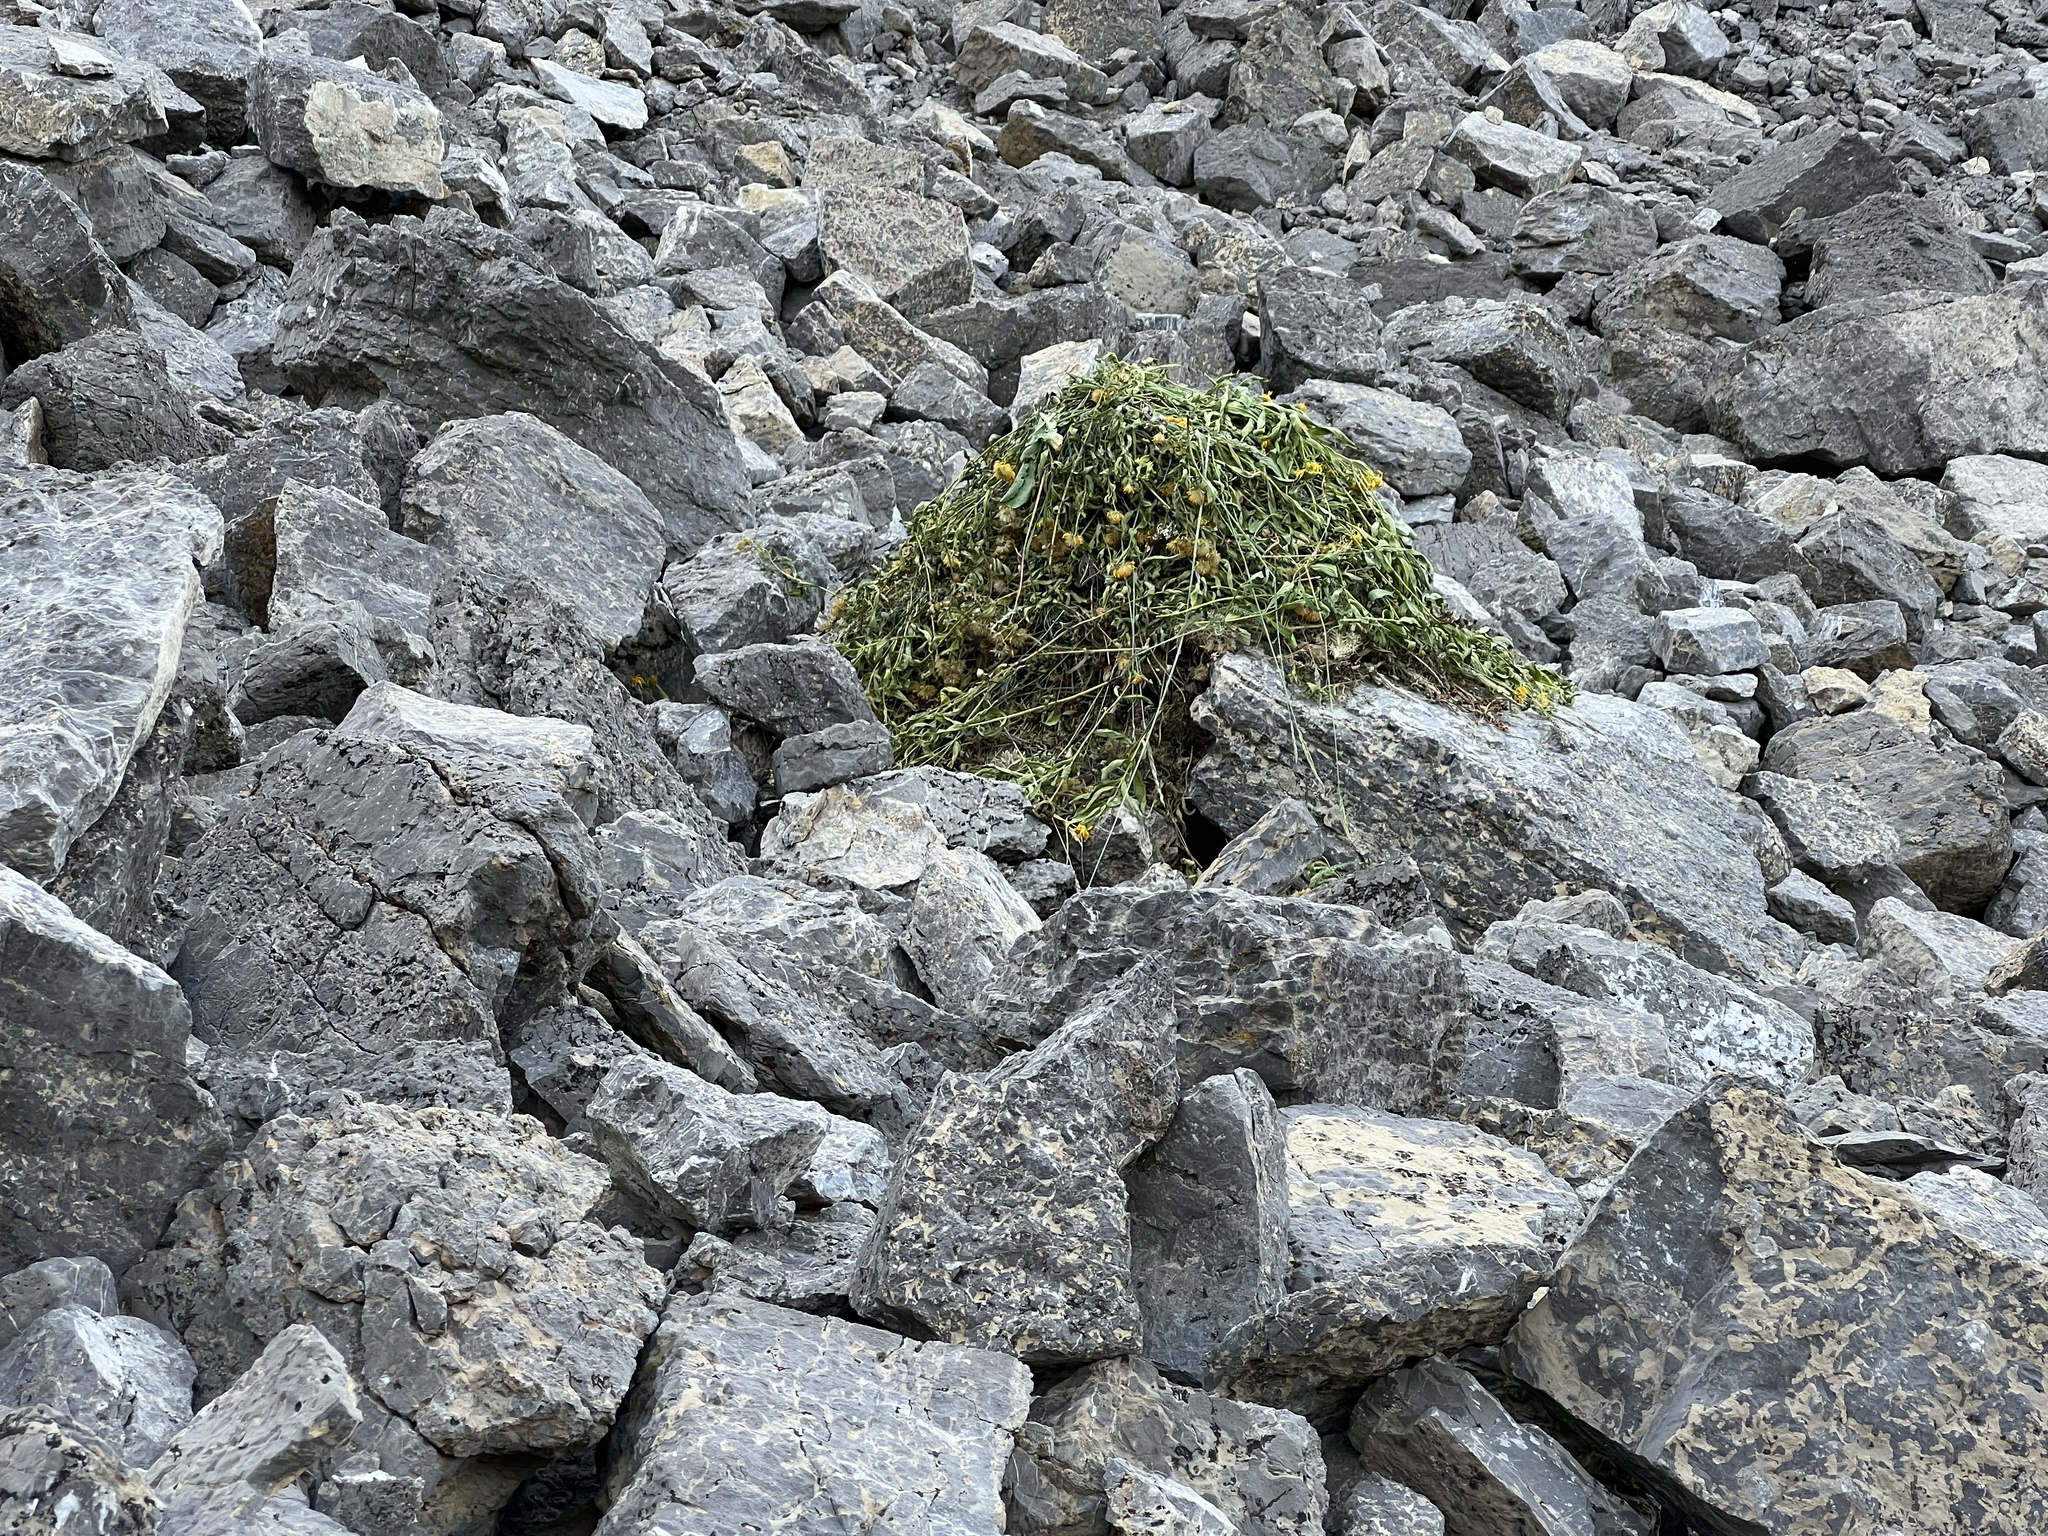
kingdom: Animalia
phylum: Chordata
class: Mammalia
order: Lagomorpha
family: Ochotonidae
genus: Ochotona
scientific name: Ochotona princeps
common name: American pika
